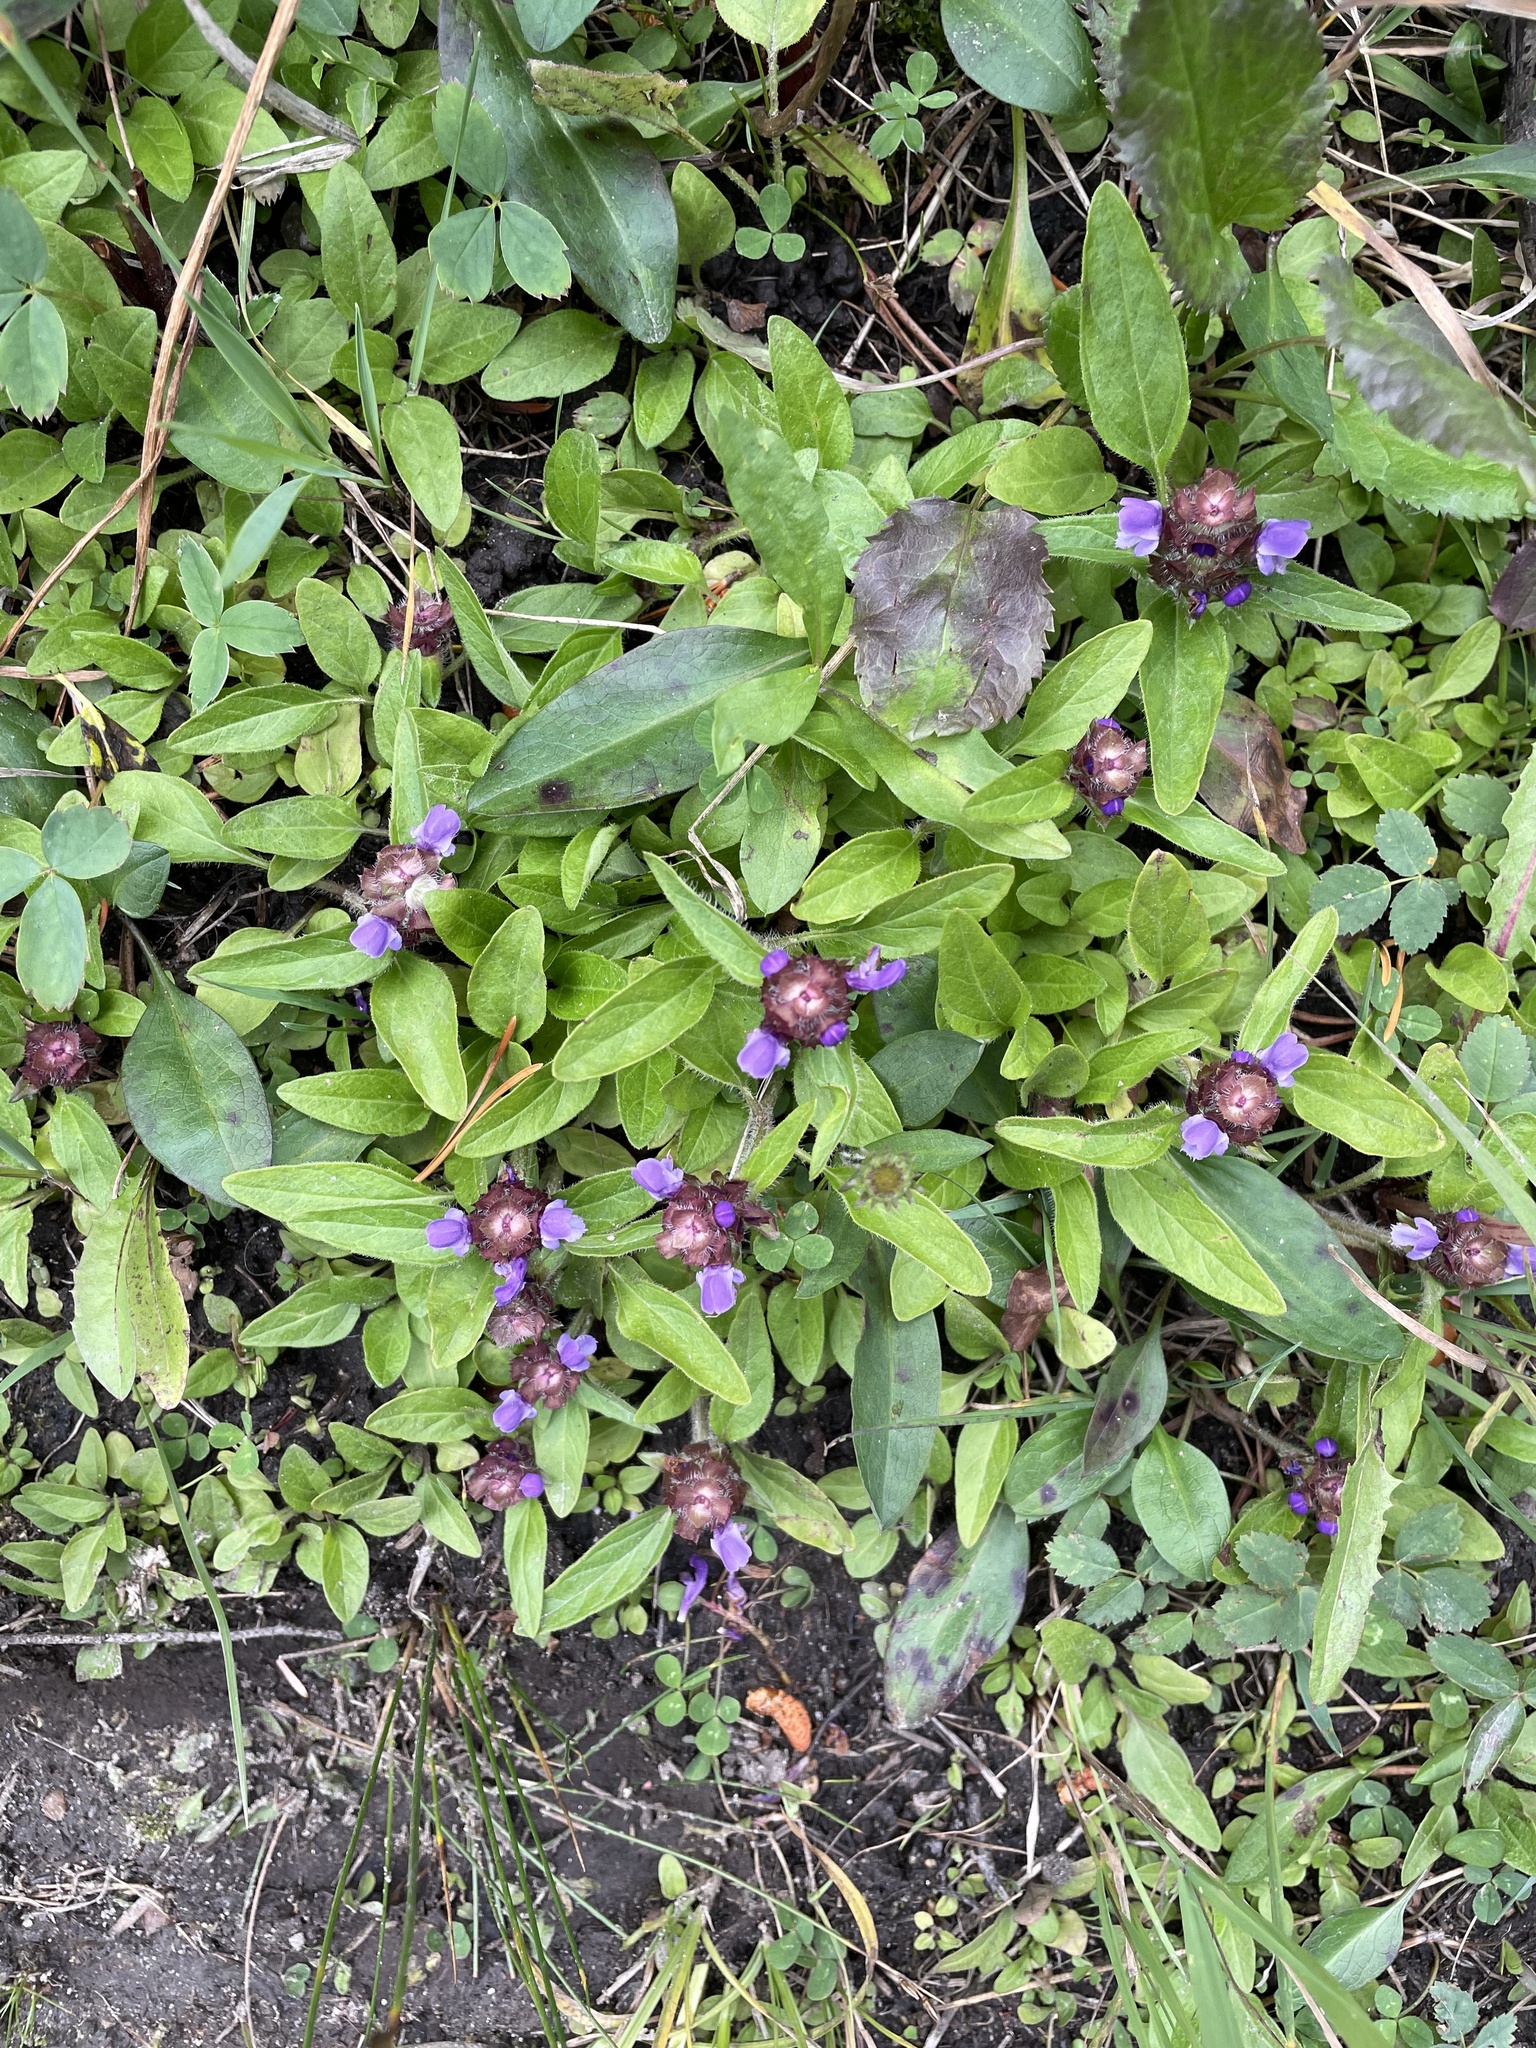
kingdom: Plantae
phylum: Tracheophyta
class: Magnoliopsida
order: Lamiales
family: Lamiaceae
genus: Prunella
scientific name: Prunella vulgaris
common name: Heal-all
